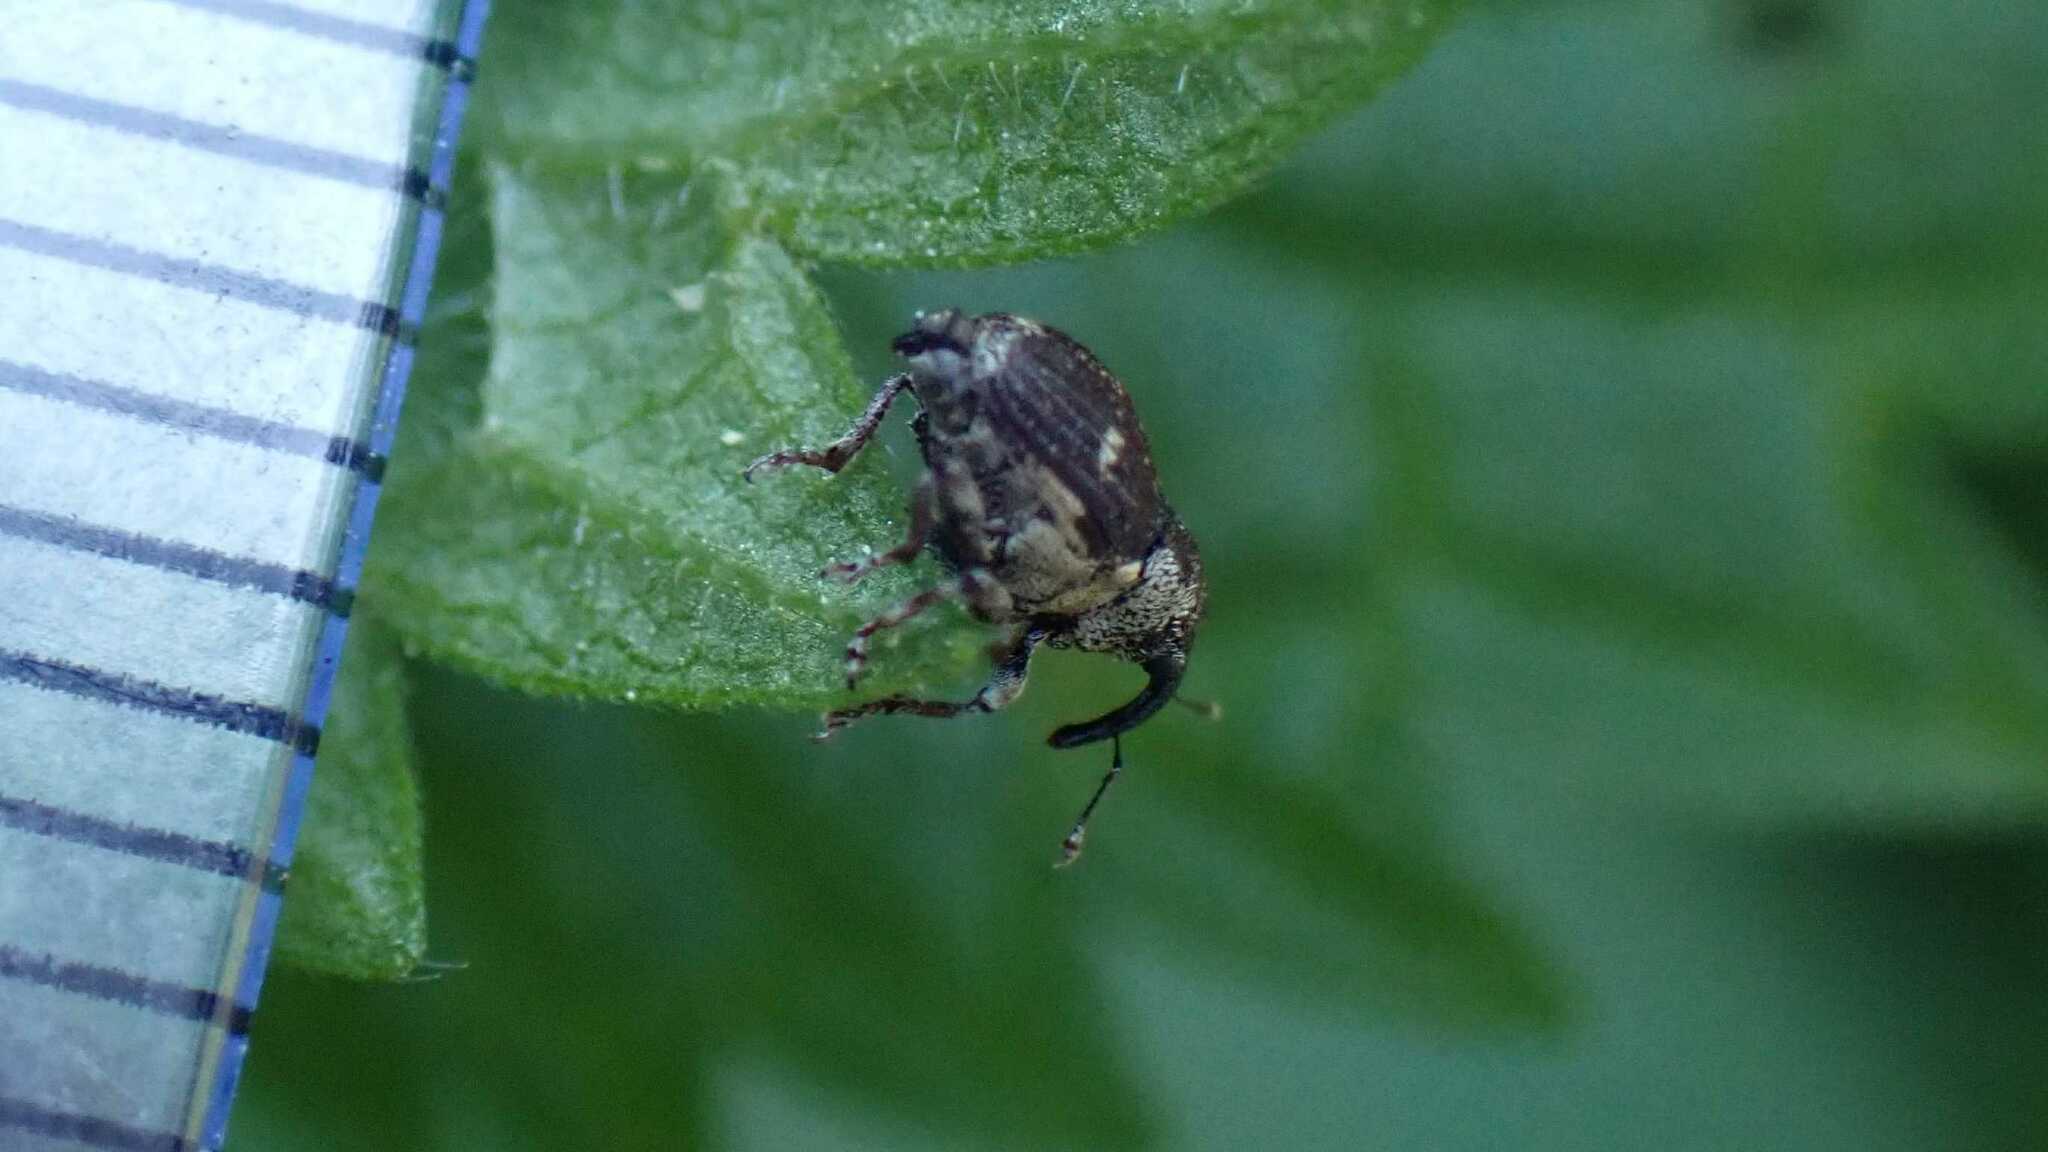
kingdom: Animalia
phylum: Arthropoda
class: Insecta
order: Coleoptera
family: Curculionidae
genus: Nedyus
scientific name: Nedyus quadrimaculatus
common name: Small nettle weevil
